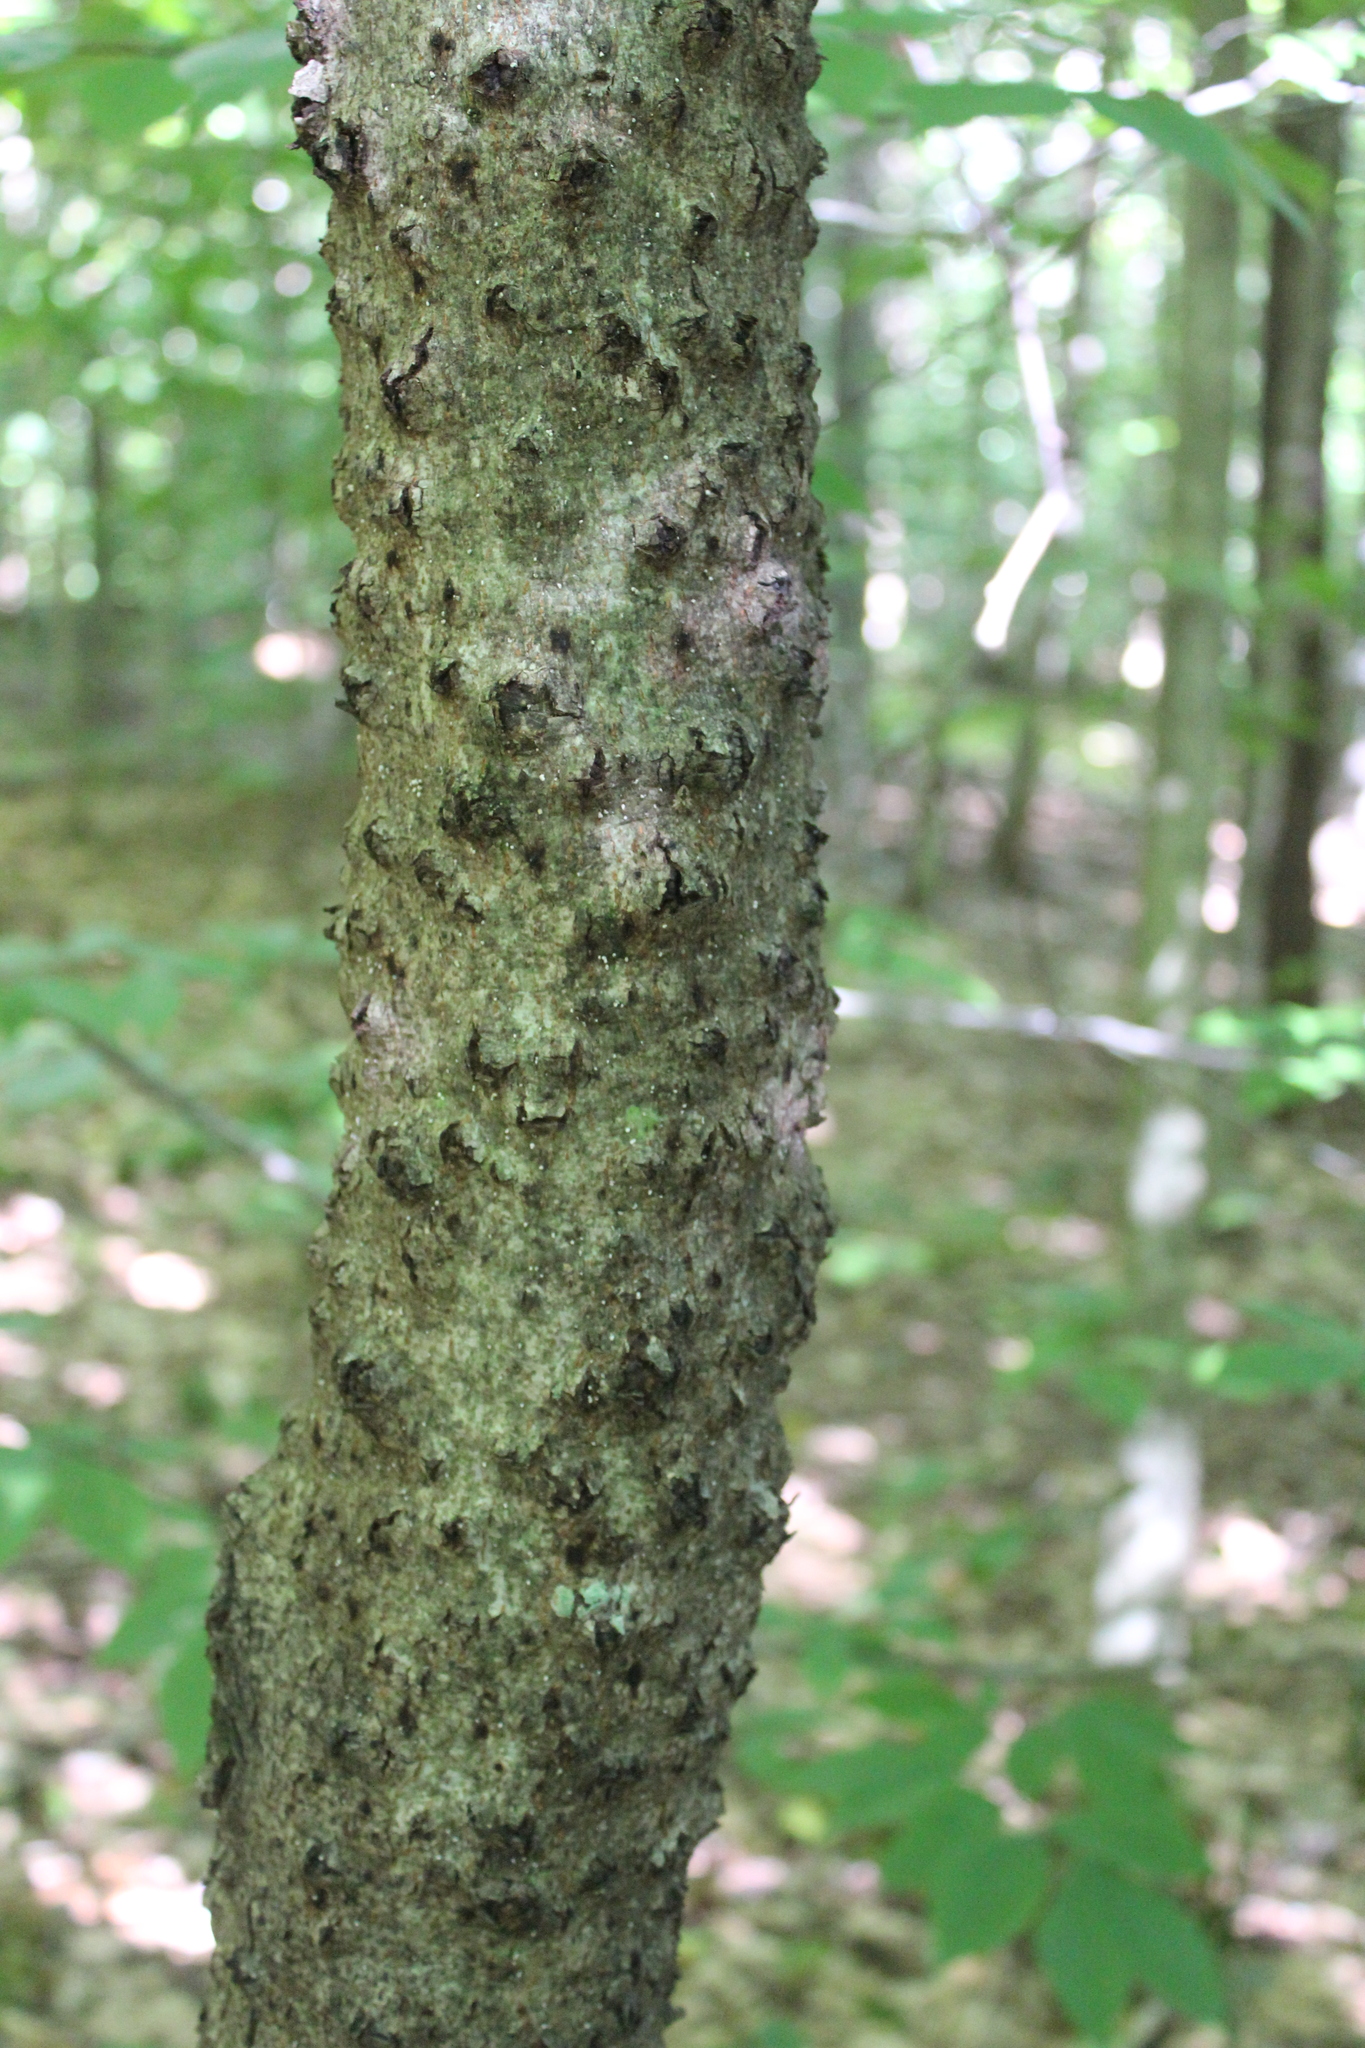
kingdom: Animalia
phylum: Arthropoda
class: Insecta
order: Hemiptera
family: Eriococcidae
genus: Cryptococcus
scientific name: Cryptococcus fagisuga
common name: Beech scale
